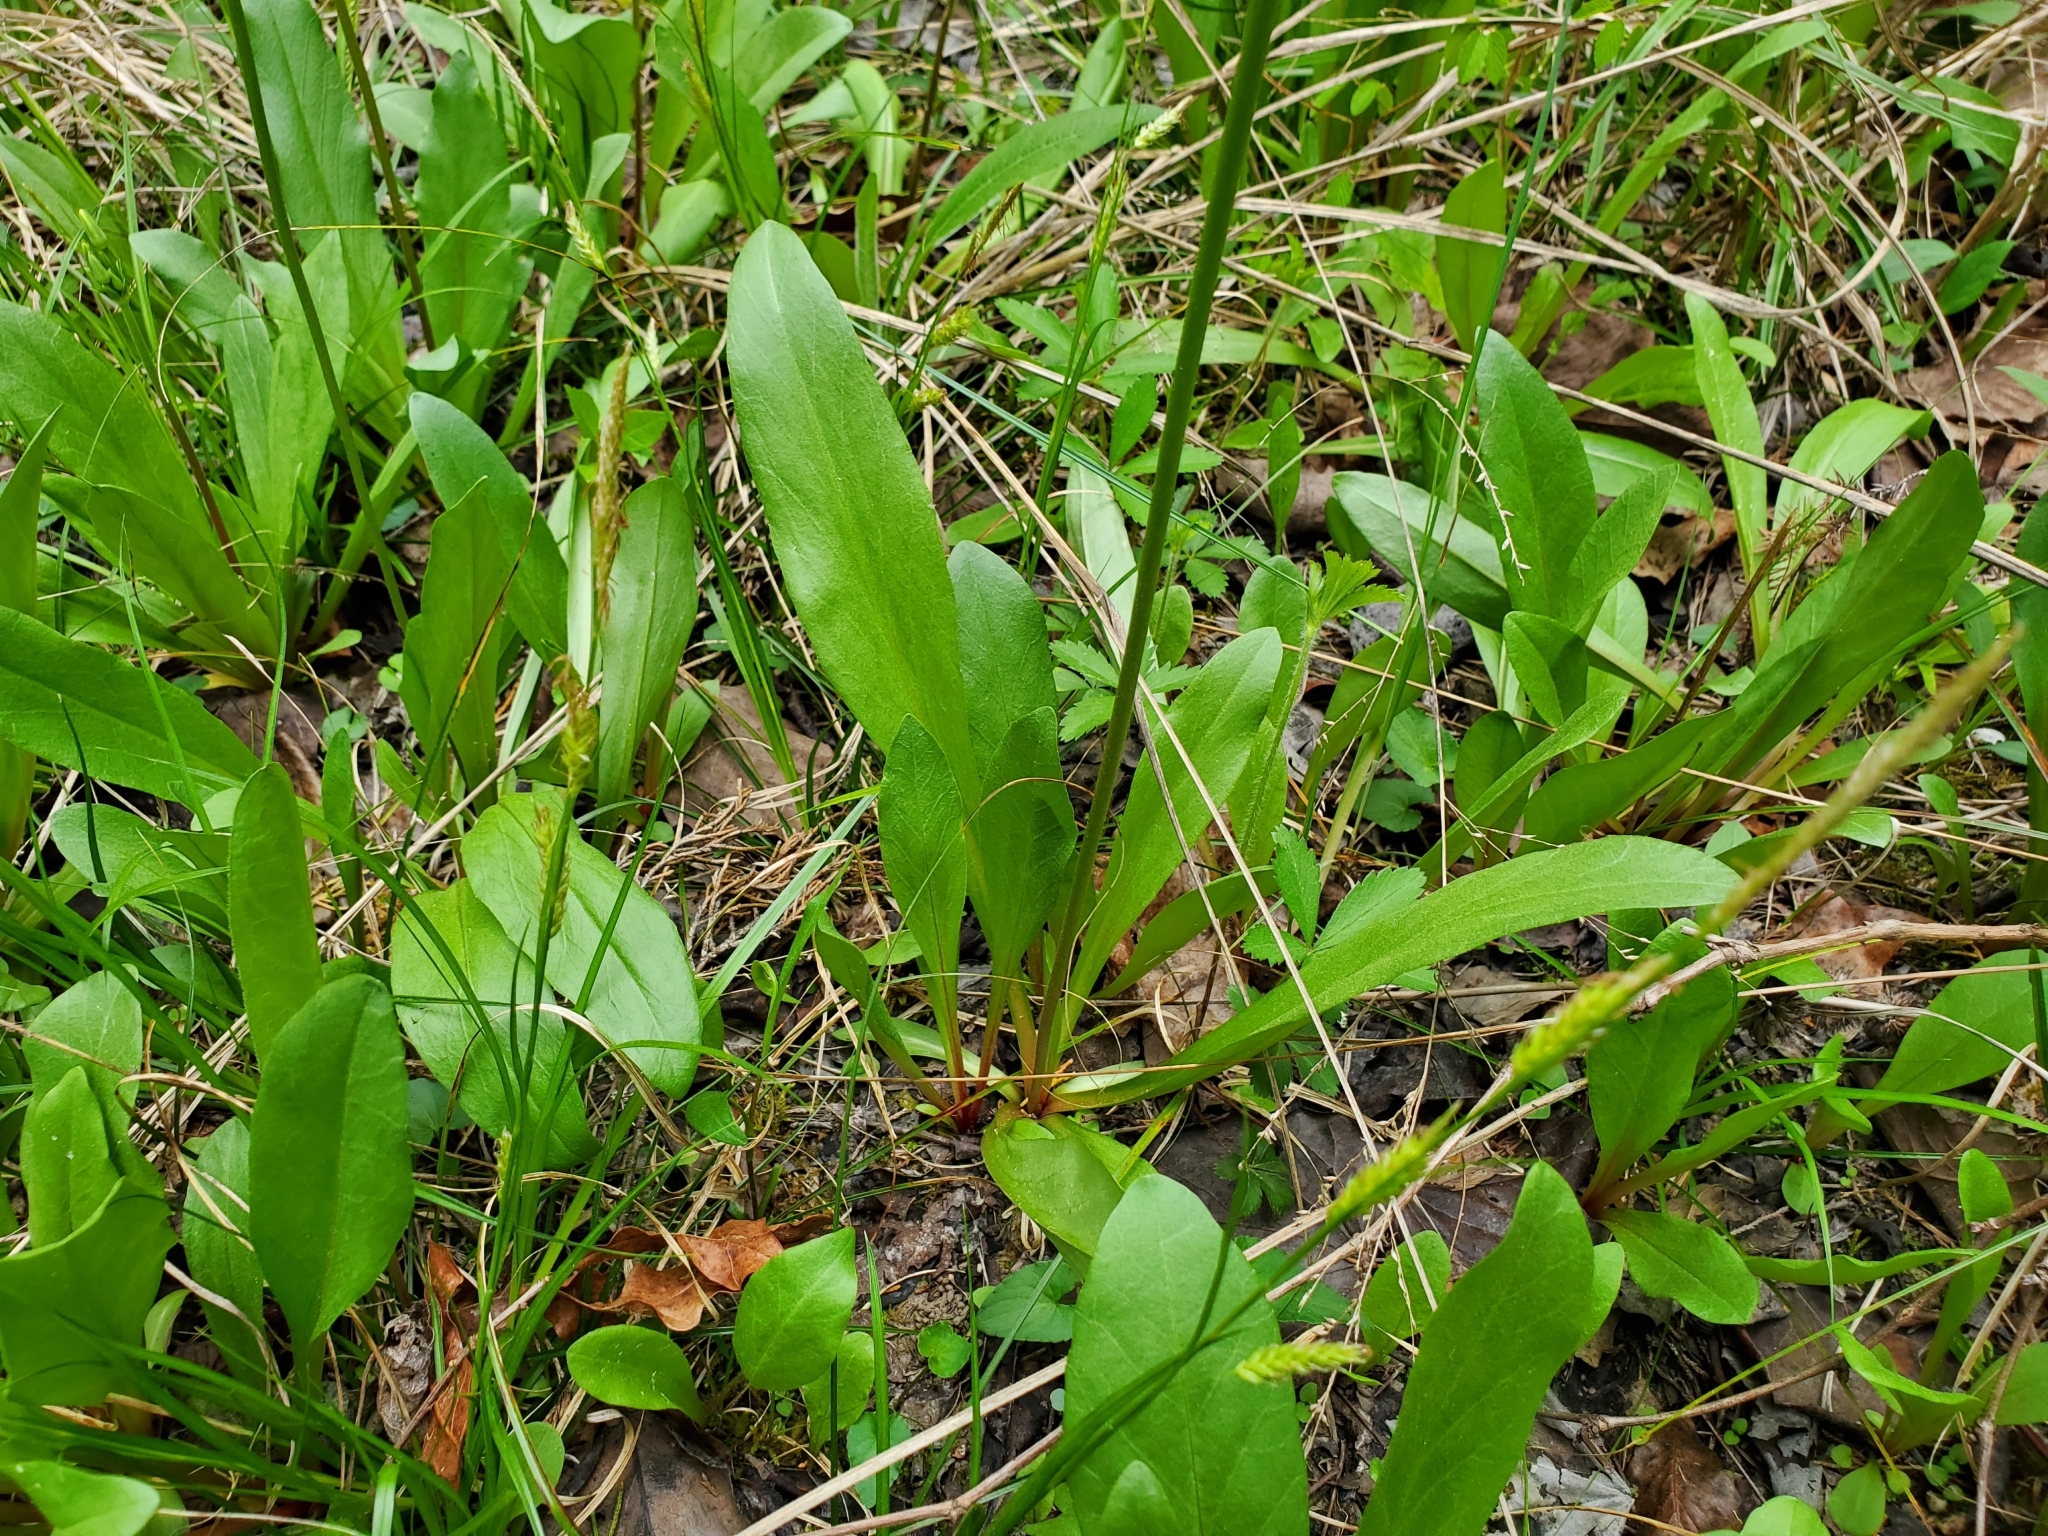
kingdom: Plantae
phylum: Tracheophyta
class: Magnoliopsida
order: Ericales
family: Primulaceae
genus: Dodecatheon
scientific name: Dodecatheon meadia
